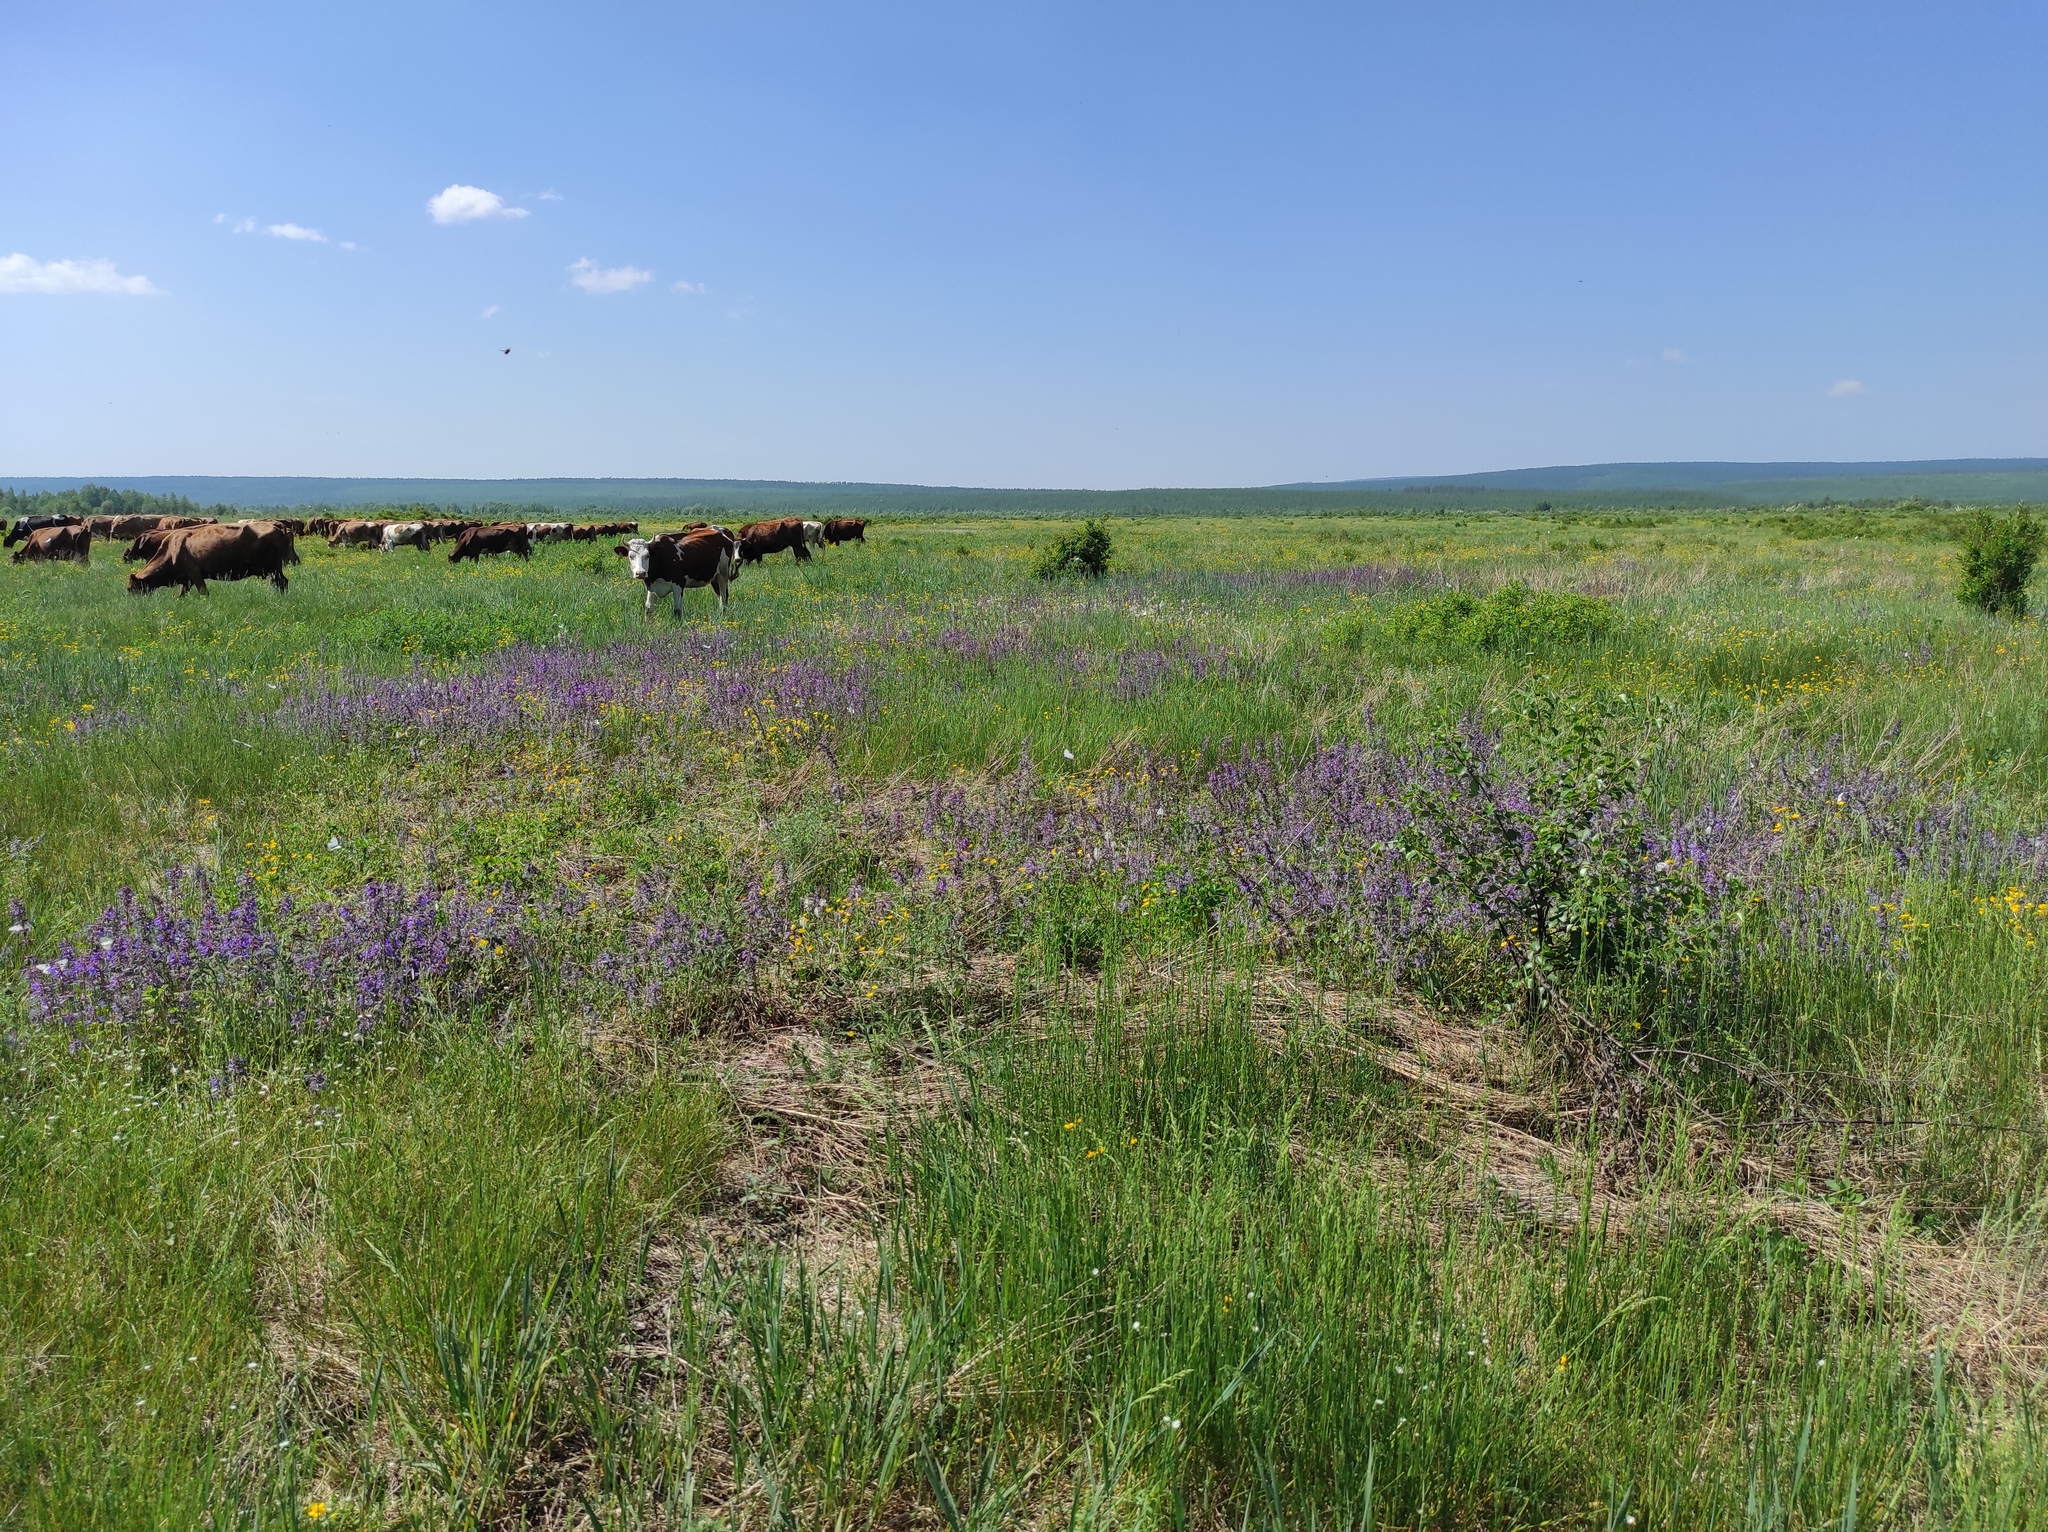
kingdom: Plantae
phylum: Tracheophyta
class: Magnoliopsida
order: Lamiales
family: Lamiaceae
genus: Dracocephalum
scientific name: Dracocephalum nutans
